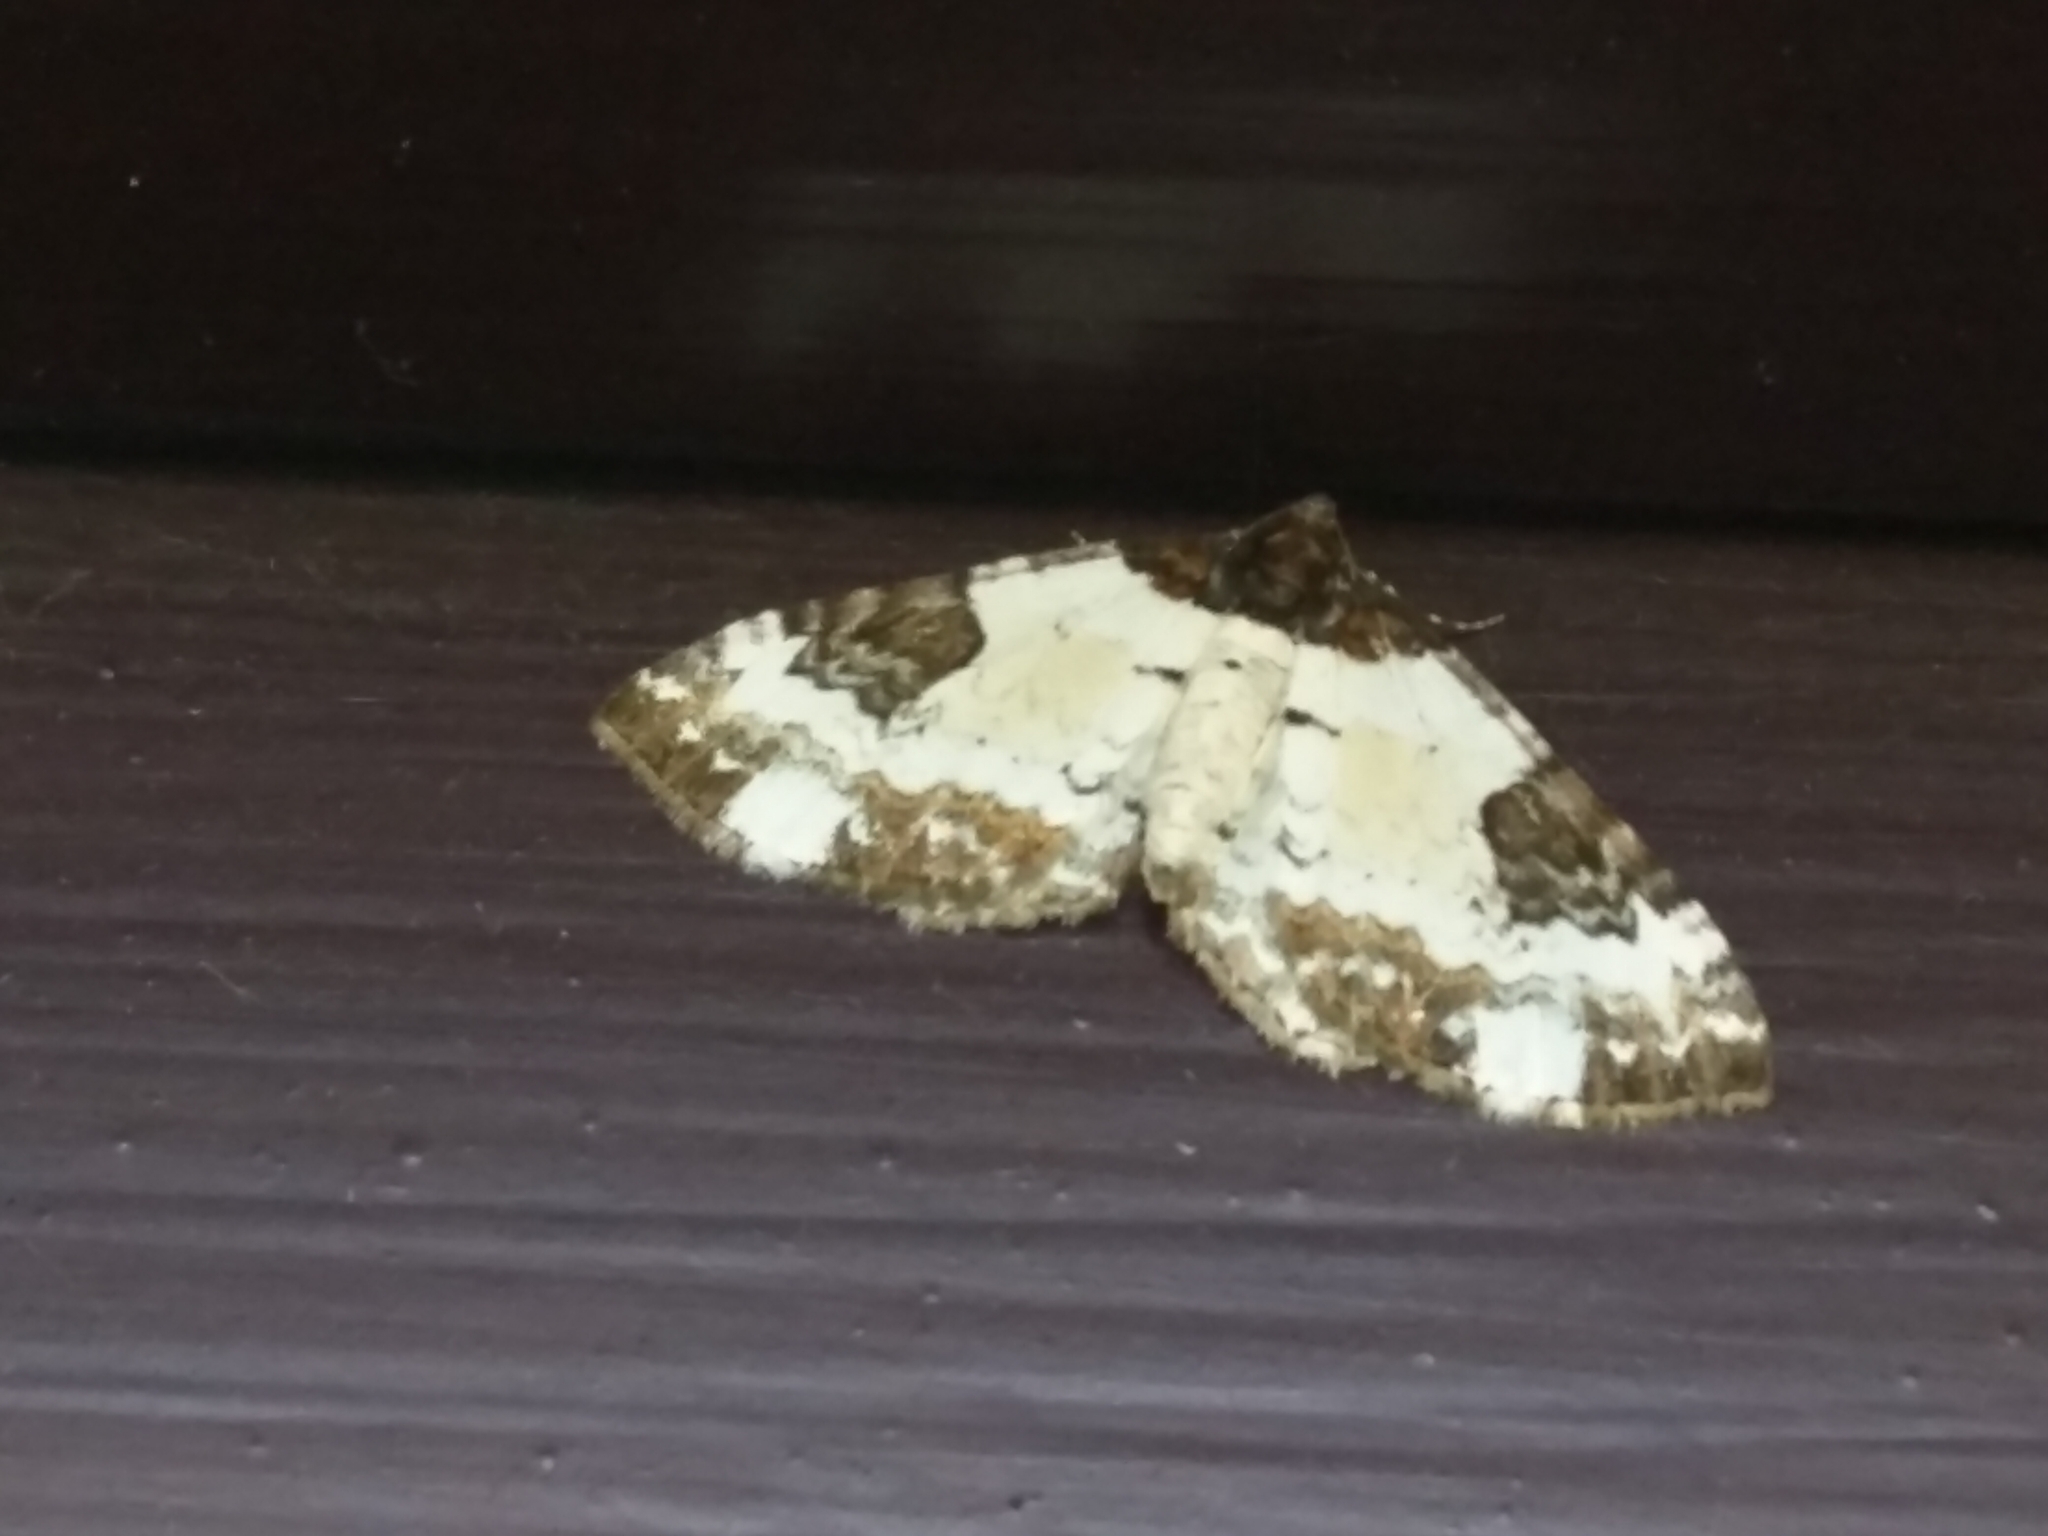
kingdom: Animalia
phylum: Arthropoda
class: Insecta
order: Lepidoptera
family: Geometridae
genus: Melanthia
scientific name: Melanthia procellata
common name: Pretty chalk carpet
